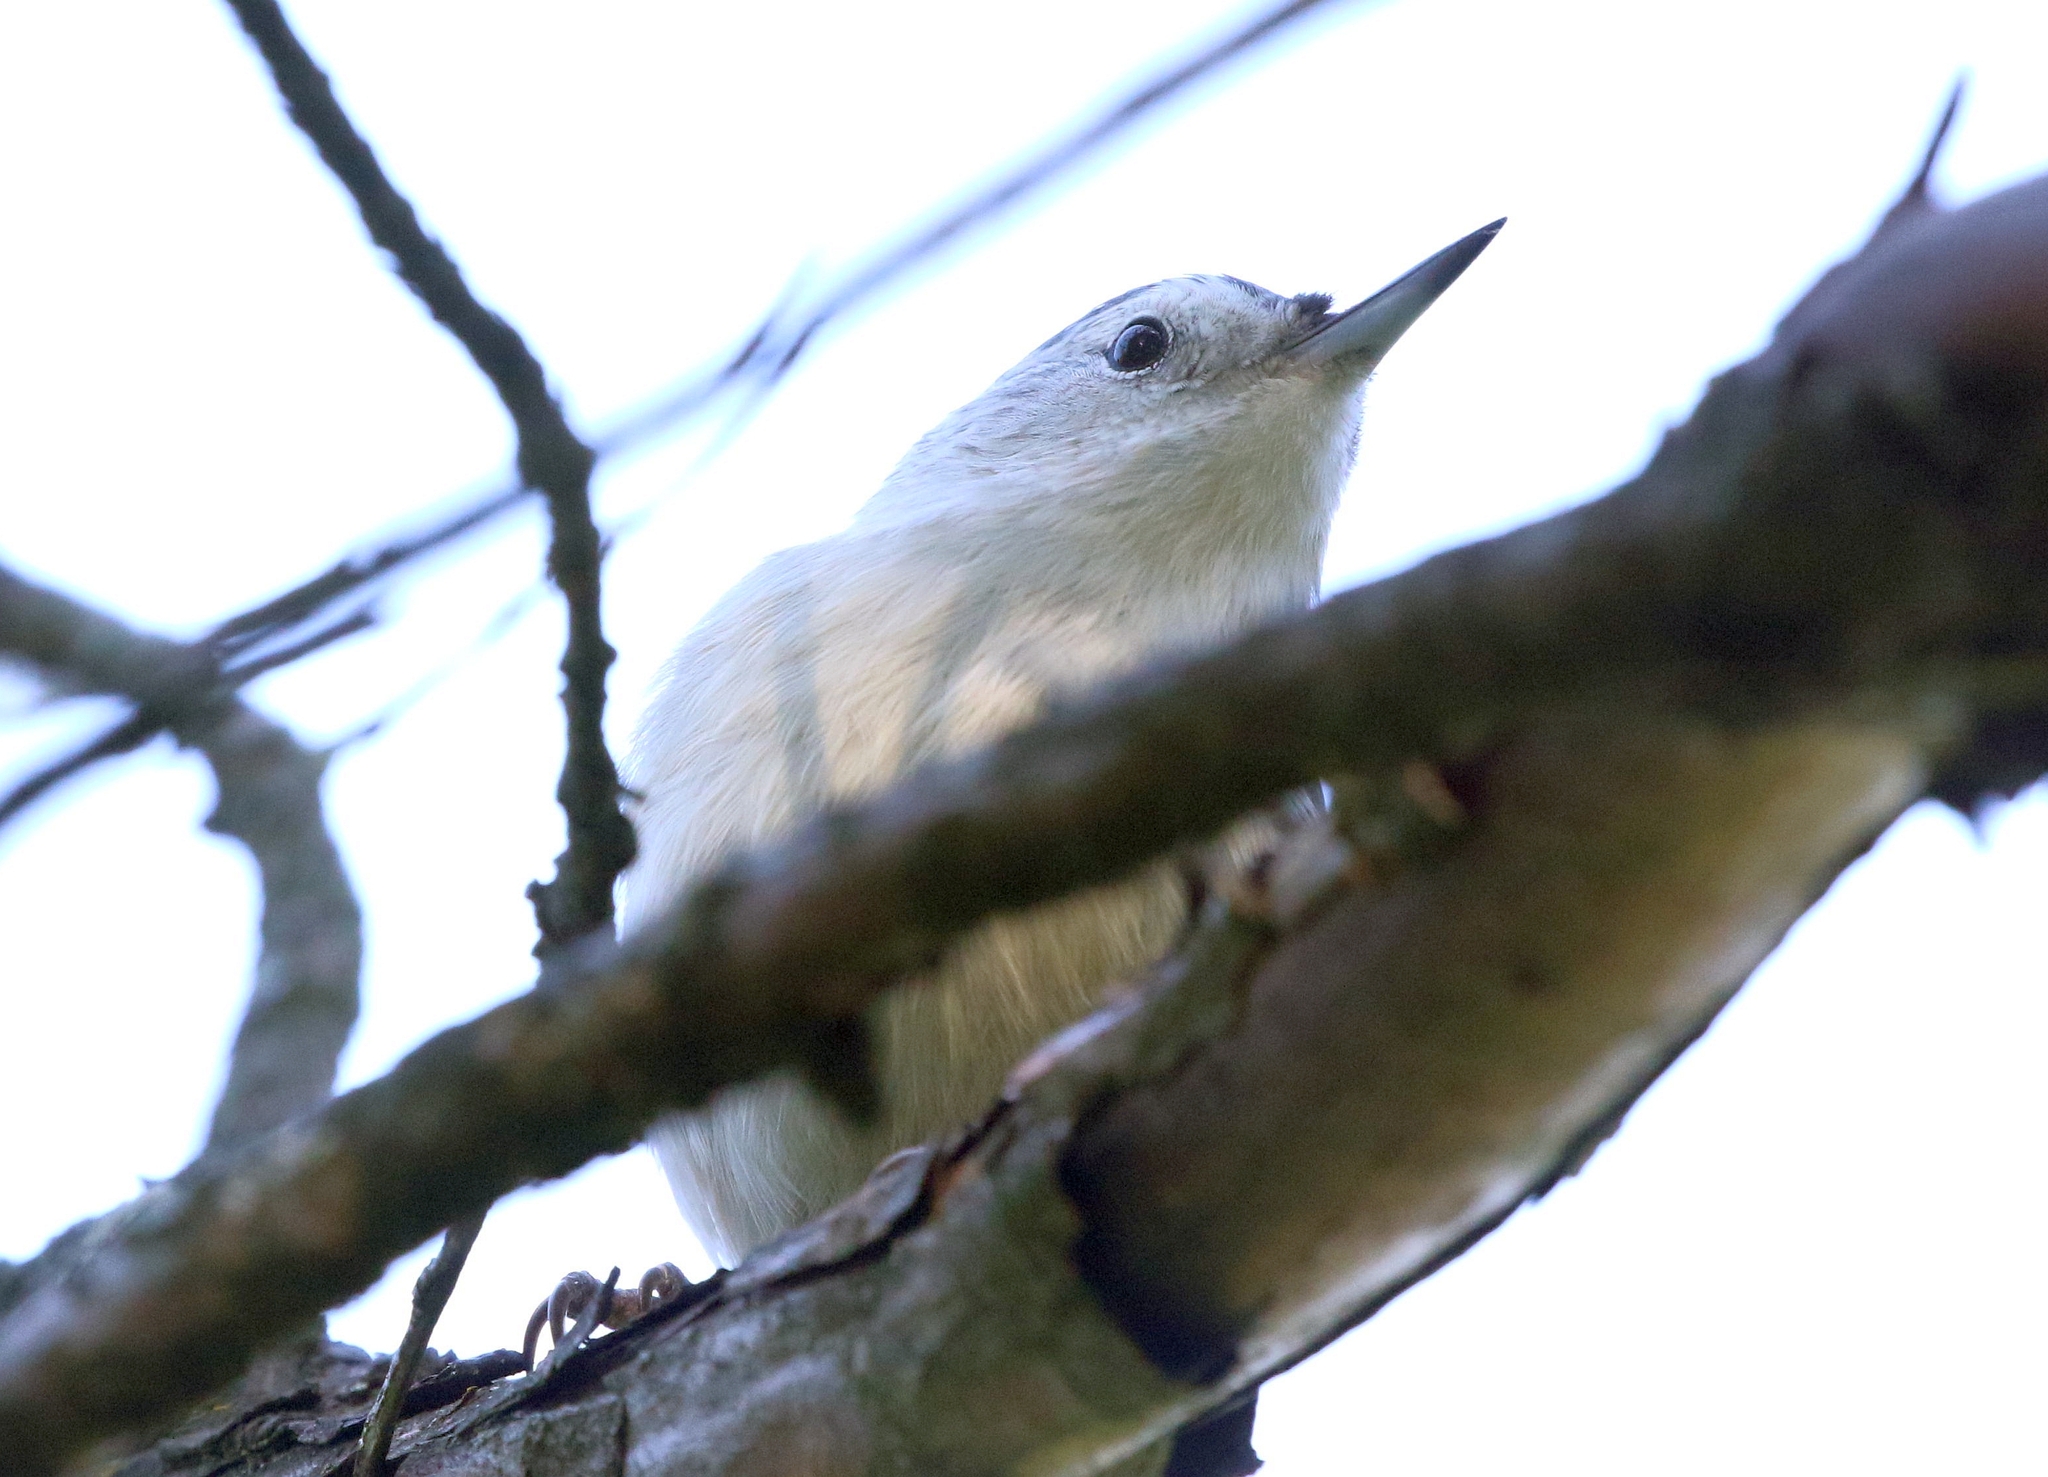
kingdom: Animalia
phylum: Chordata
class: Aves
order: Passeriformes
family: Sittidae
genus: Sitta
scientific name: Sitta carolinensis
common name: White-breasted nuthatch
